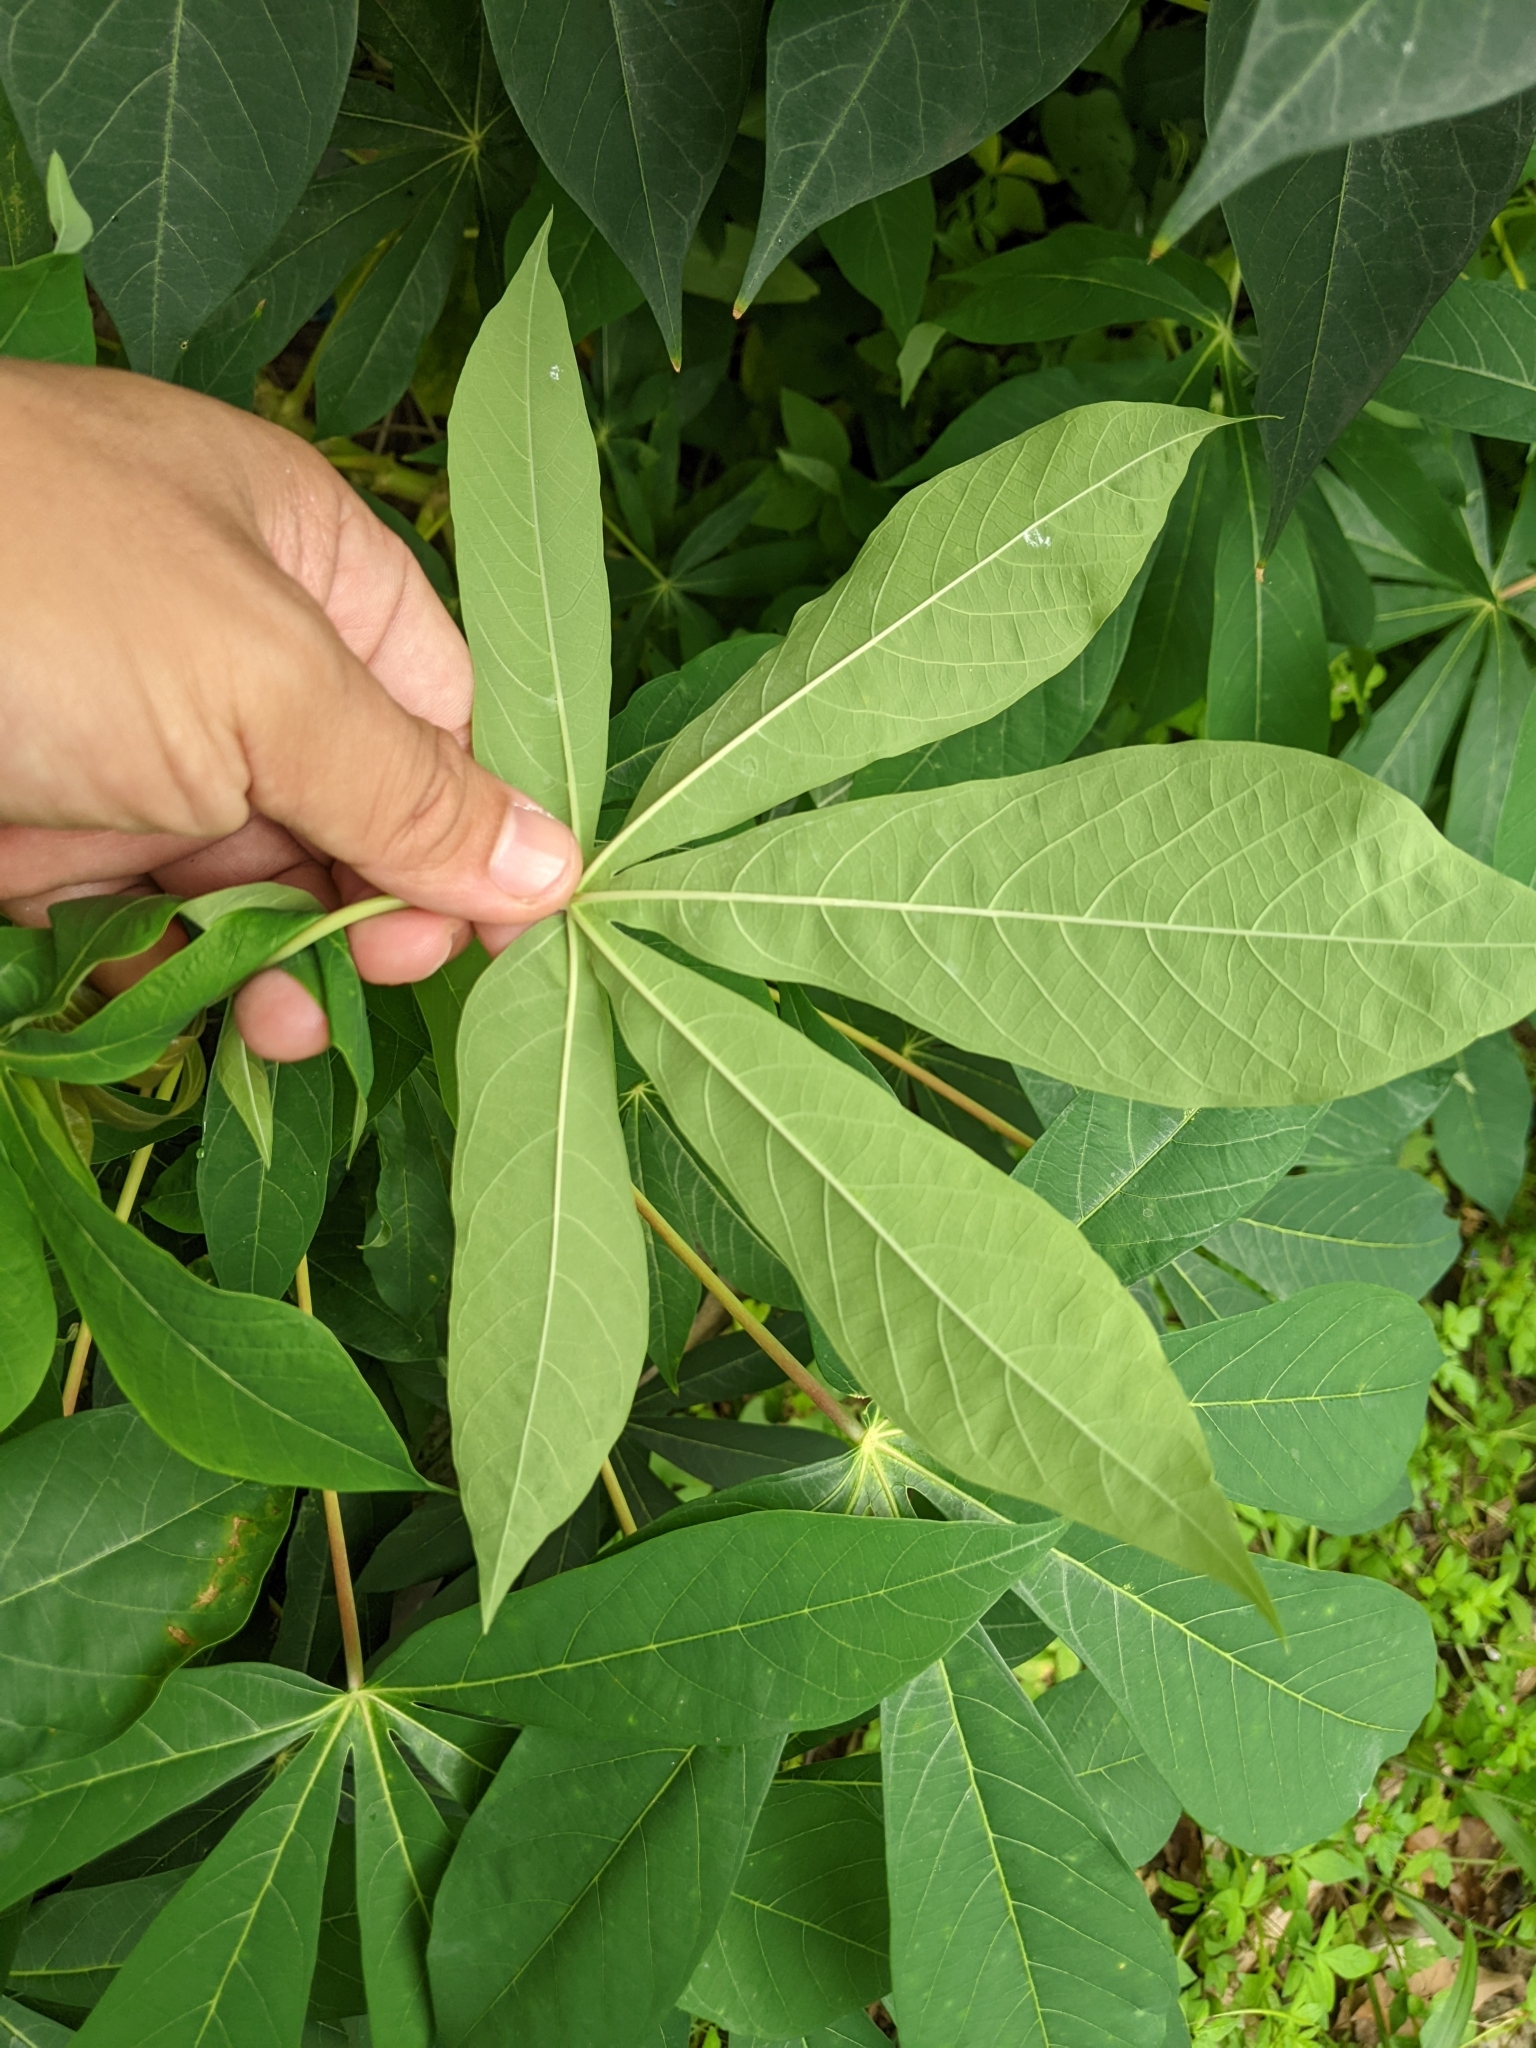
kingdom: Plantae
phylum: Tracheophyta
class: Magnoliopsida
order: Malpighiales
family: Euphorbiaceae
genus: Manihot
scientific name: Manihot esculenta
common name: Cassava
